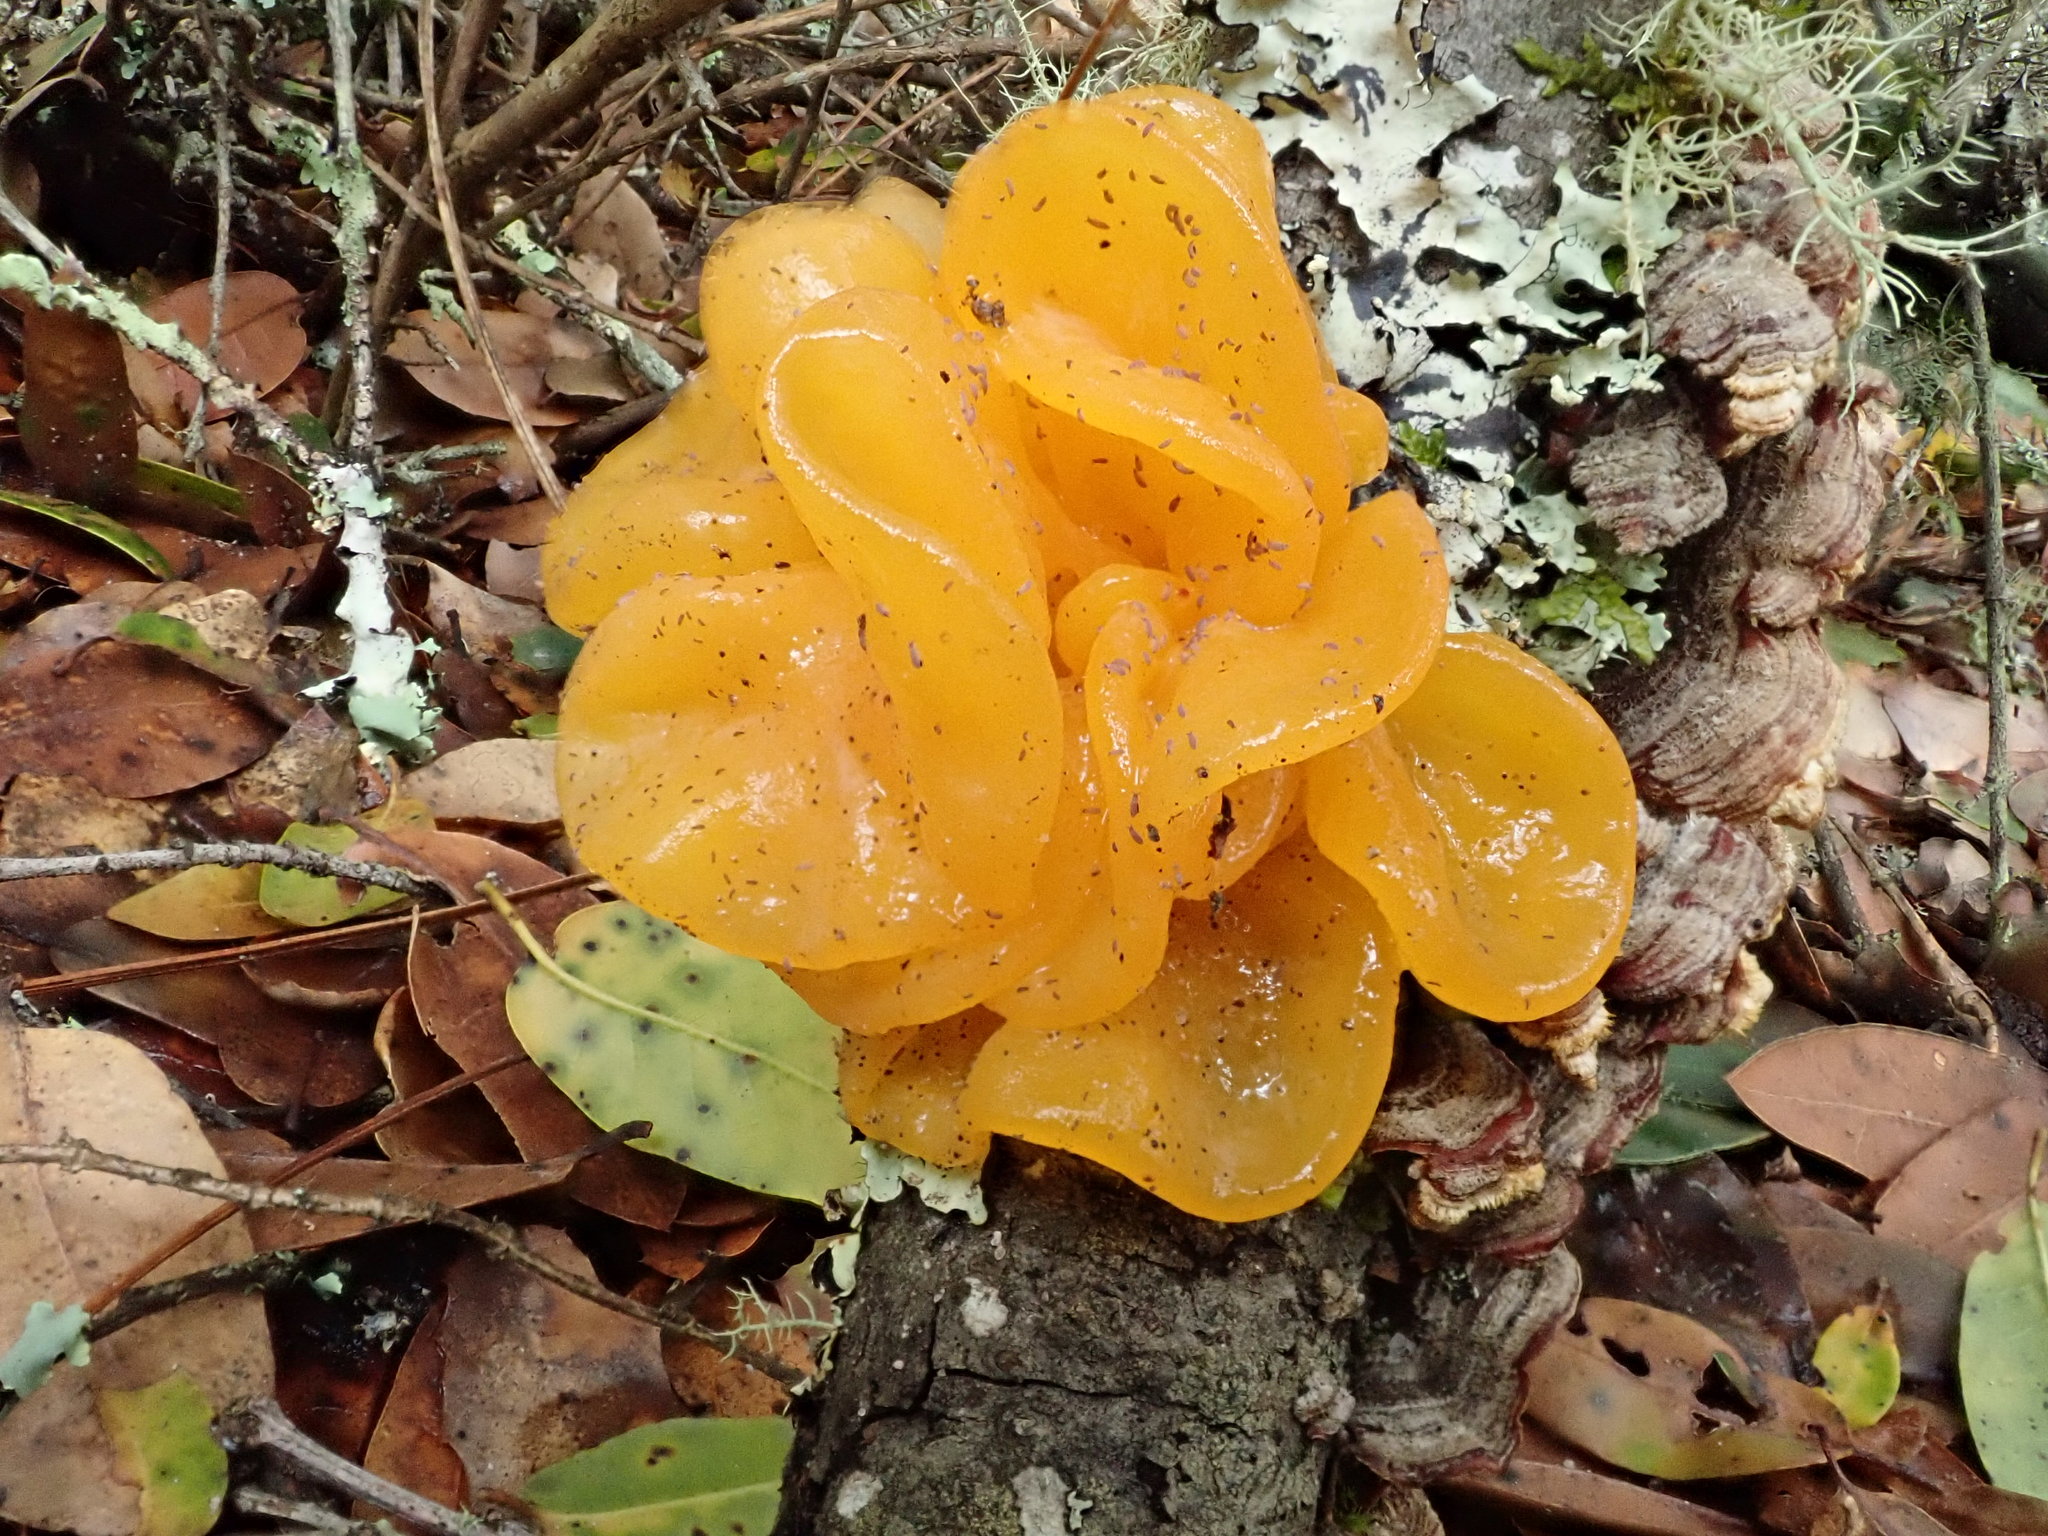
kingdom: Fungi
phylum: Basidiomycota
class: Tremellomycetes
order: Tremellales
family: Tremellaceae
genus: Tremella
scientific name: Tremella mesenterica
